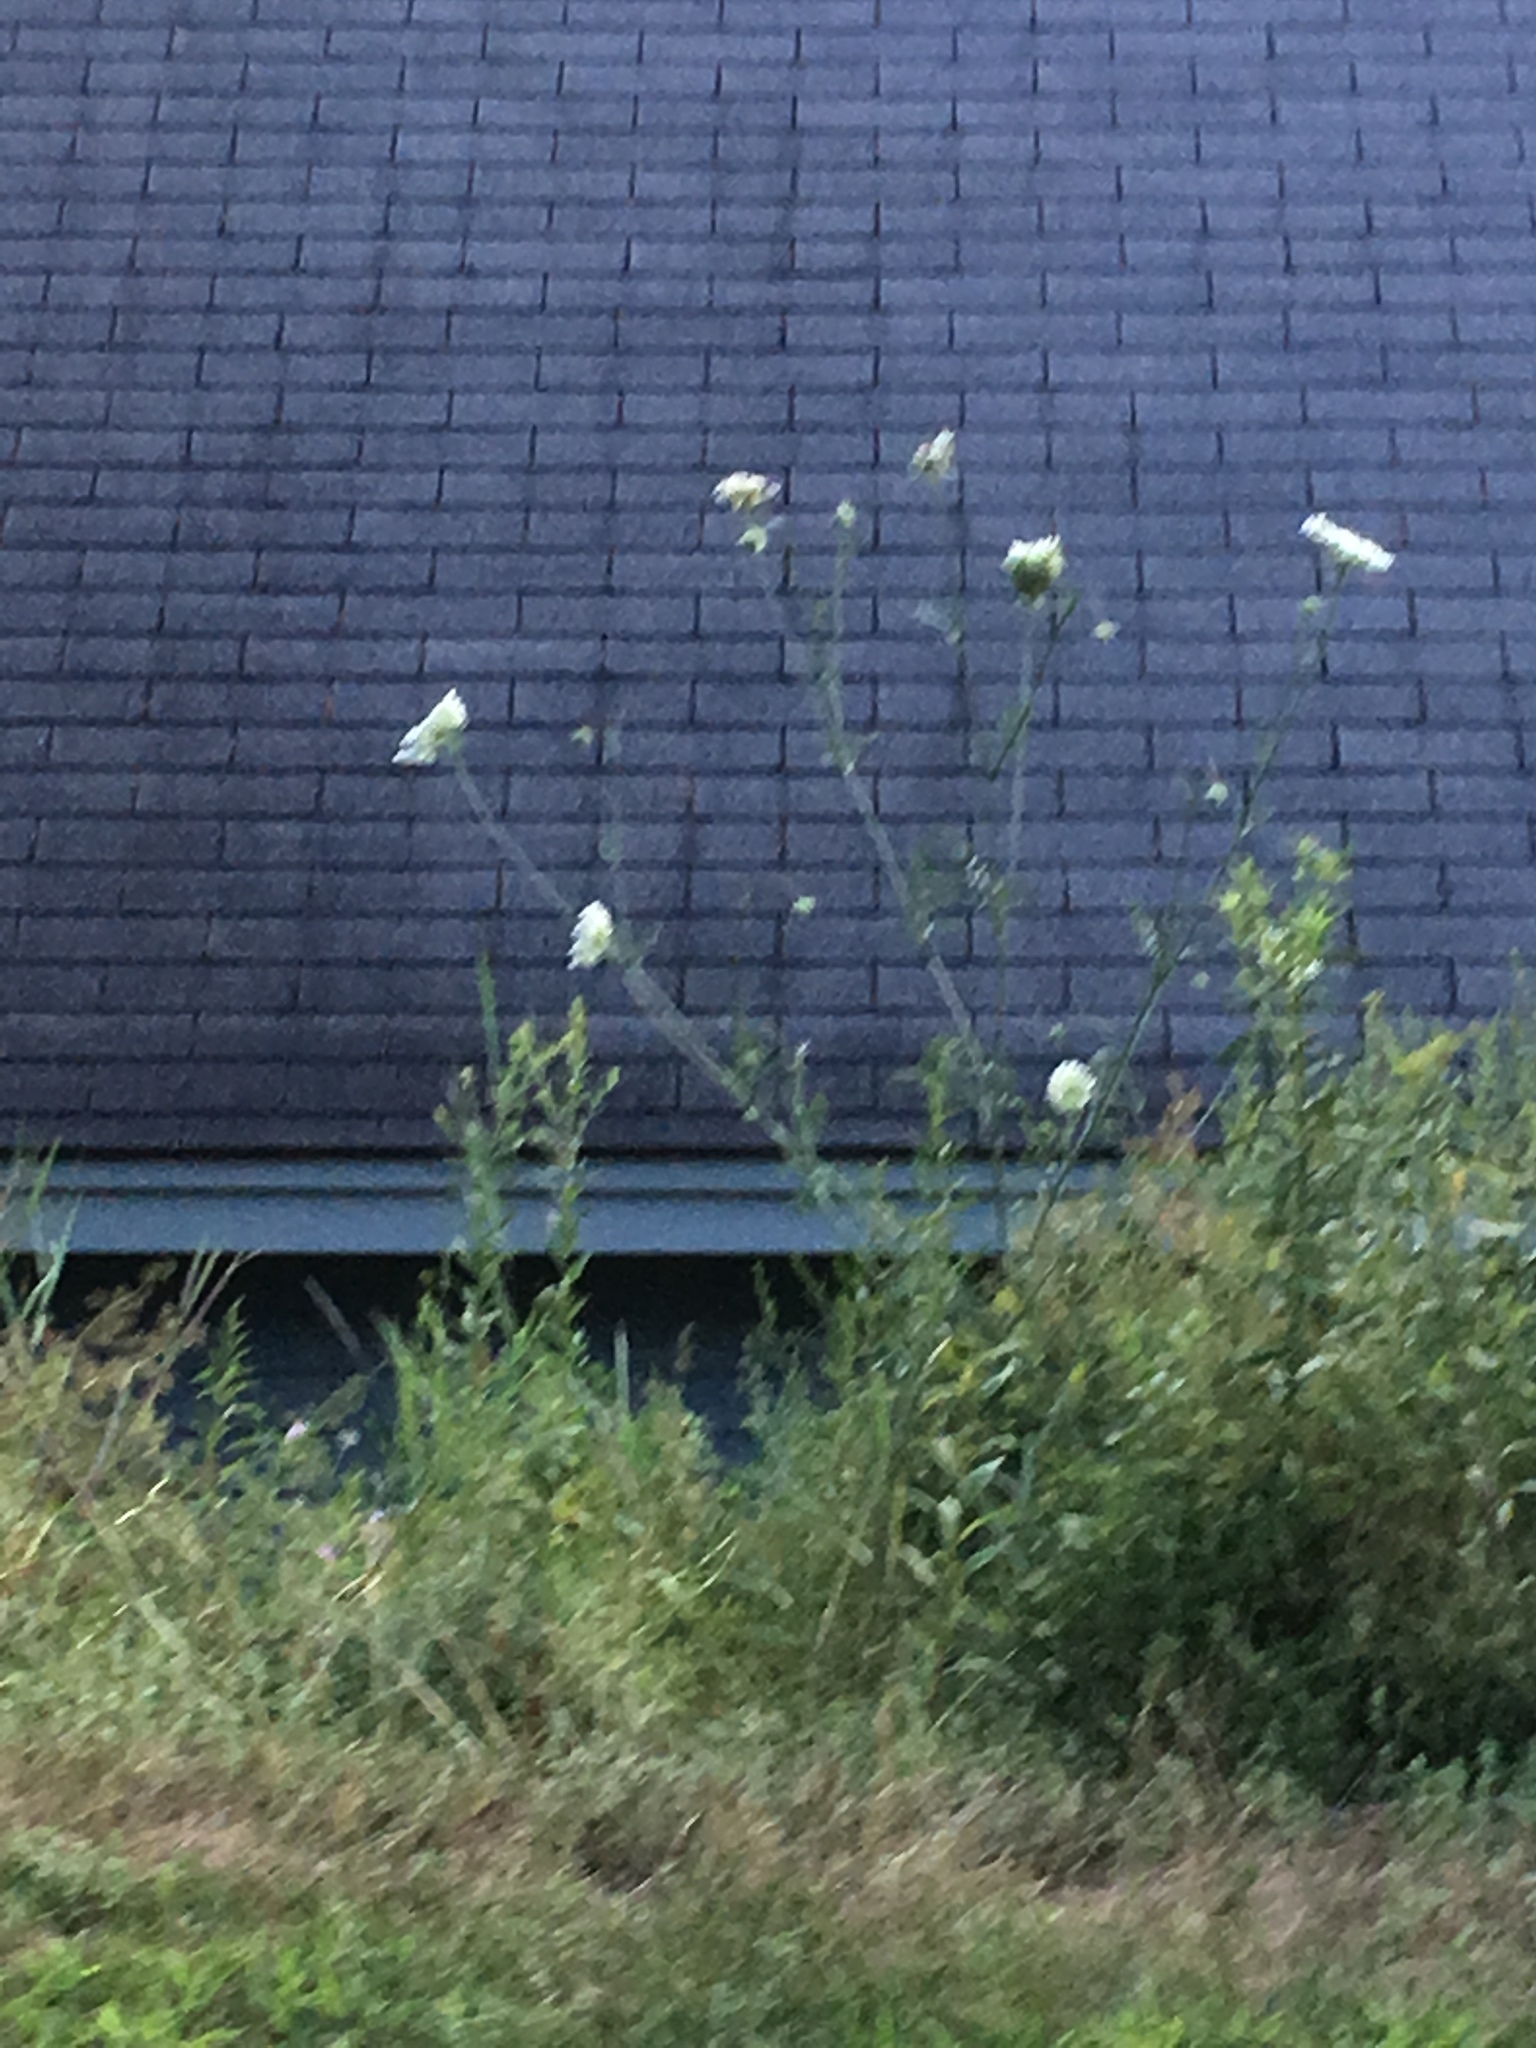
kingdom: Plantae
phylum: Tracheophyta
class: Magnoliopsida
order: Apiales
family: Apiaceae
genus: Daucus
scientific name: Daucus carota
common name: Wild carrot
